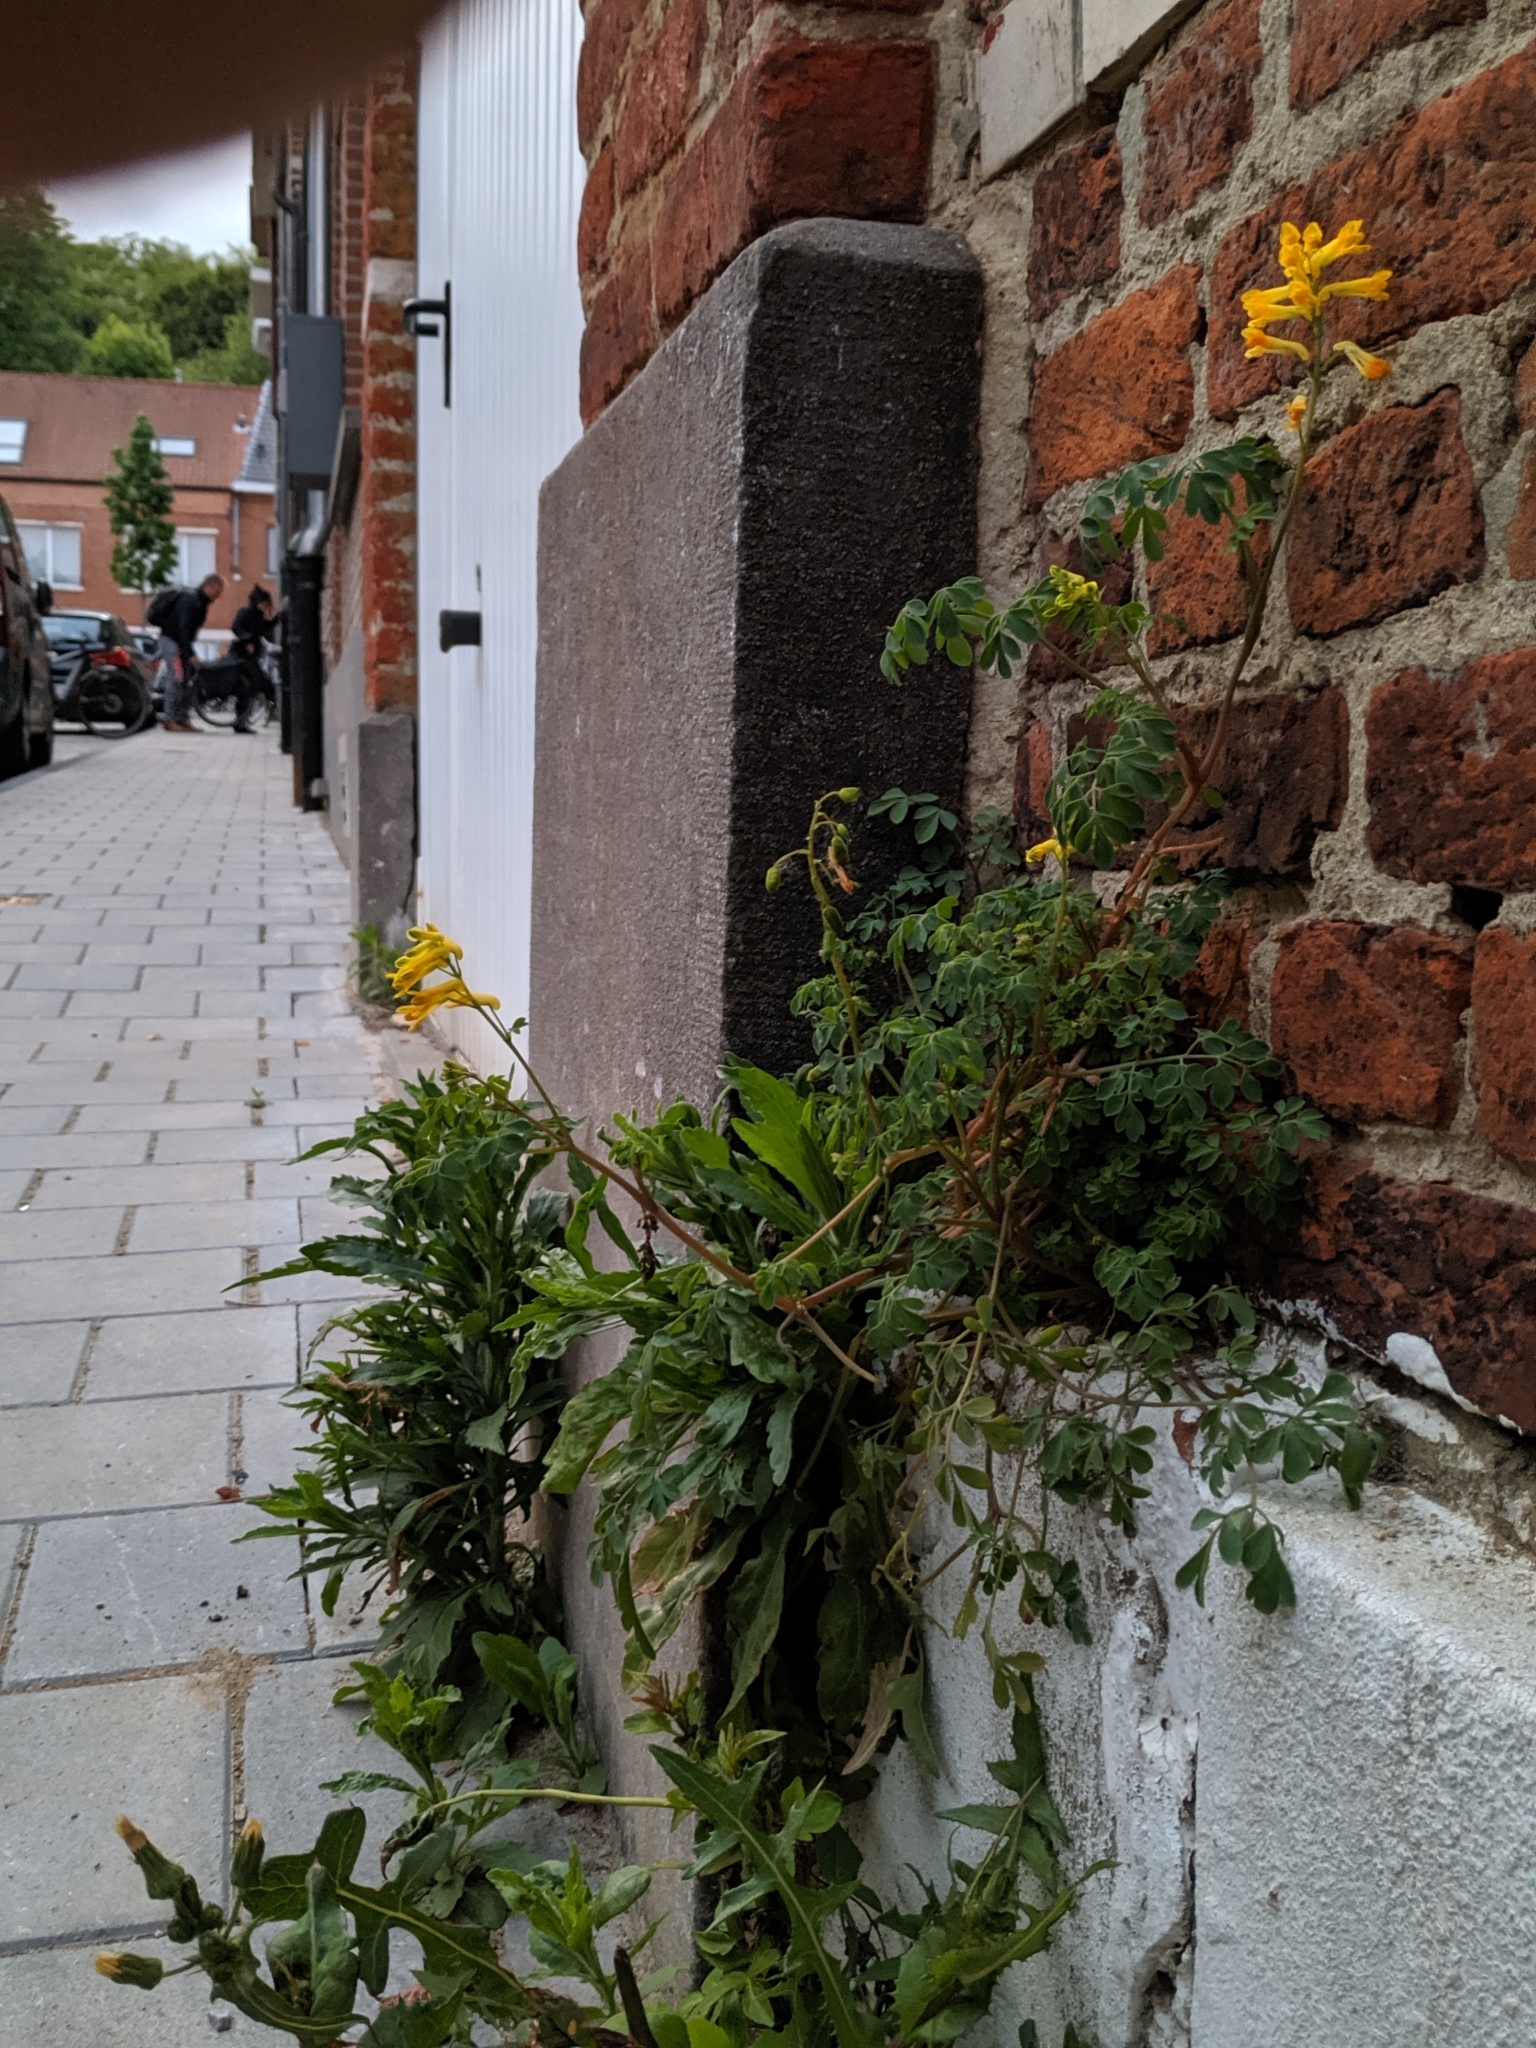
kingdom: Plantae
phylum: Tracheophyta
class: Magnoliopsida
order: Ranunculales
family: Papaveraceae
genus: Pseudofumaria
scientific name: Pseudofumaria lutea
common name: Yellow corydalis
